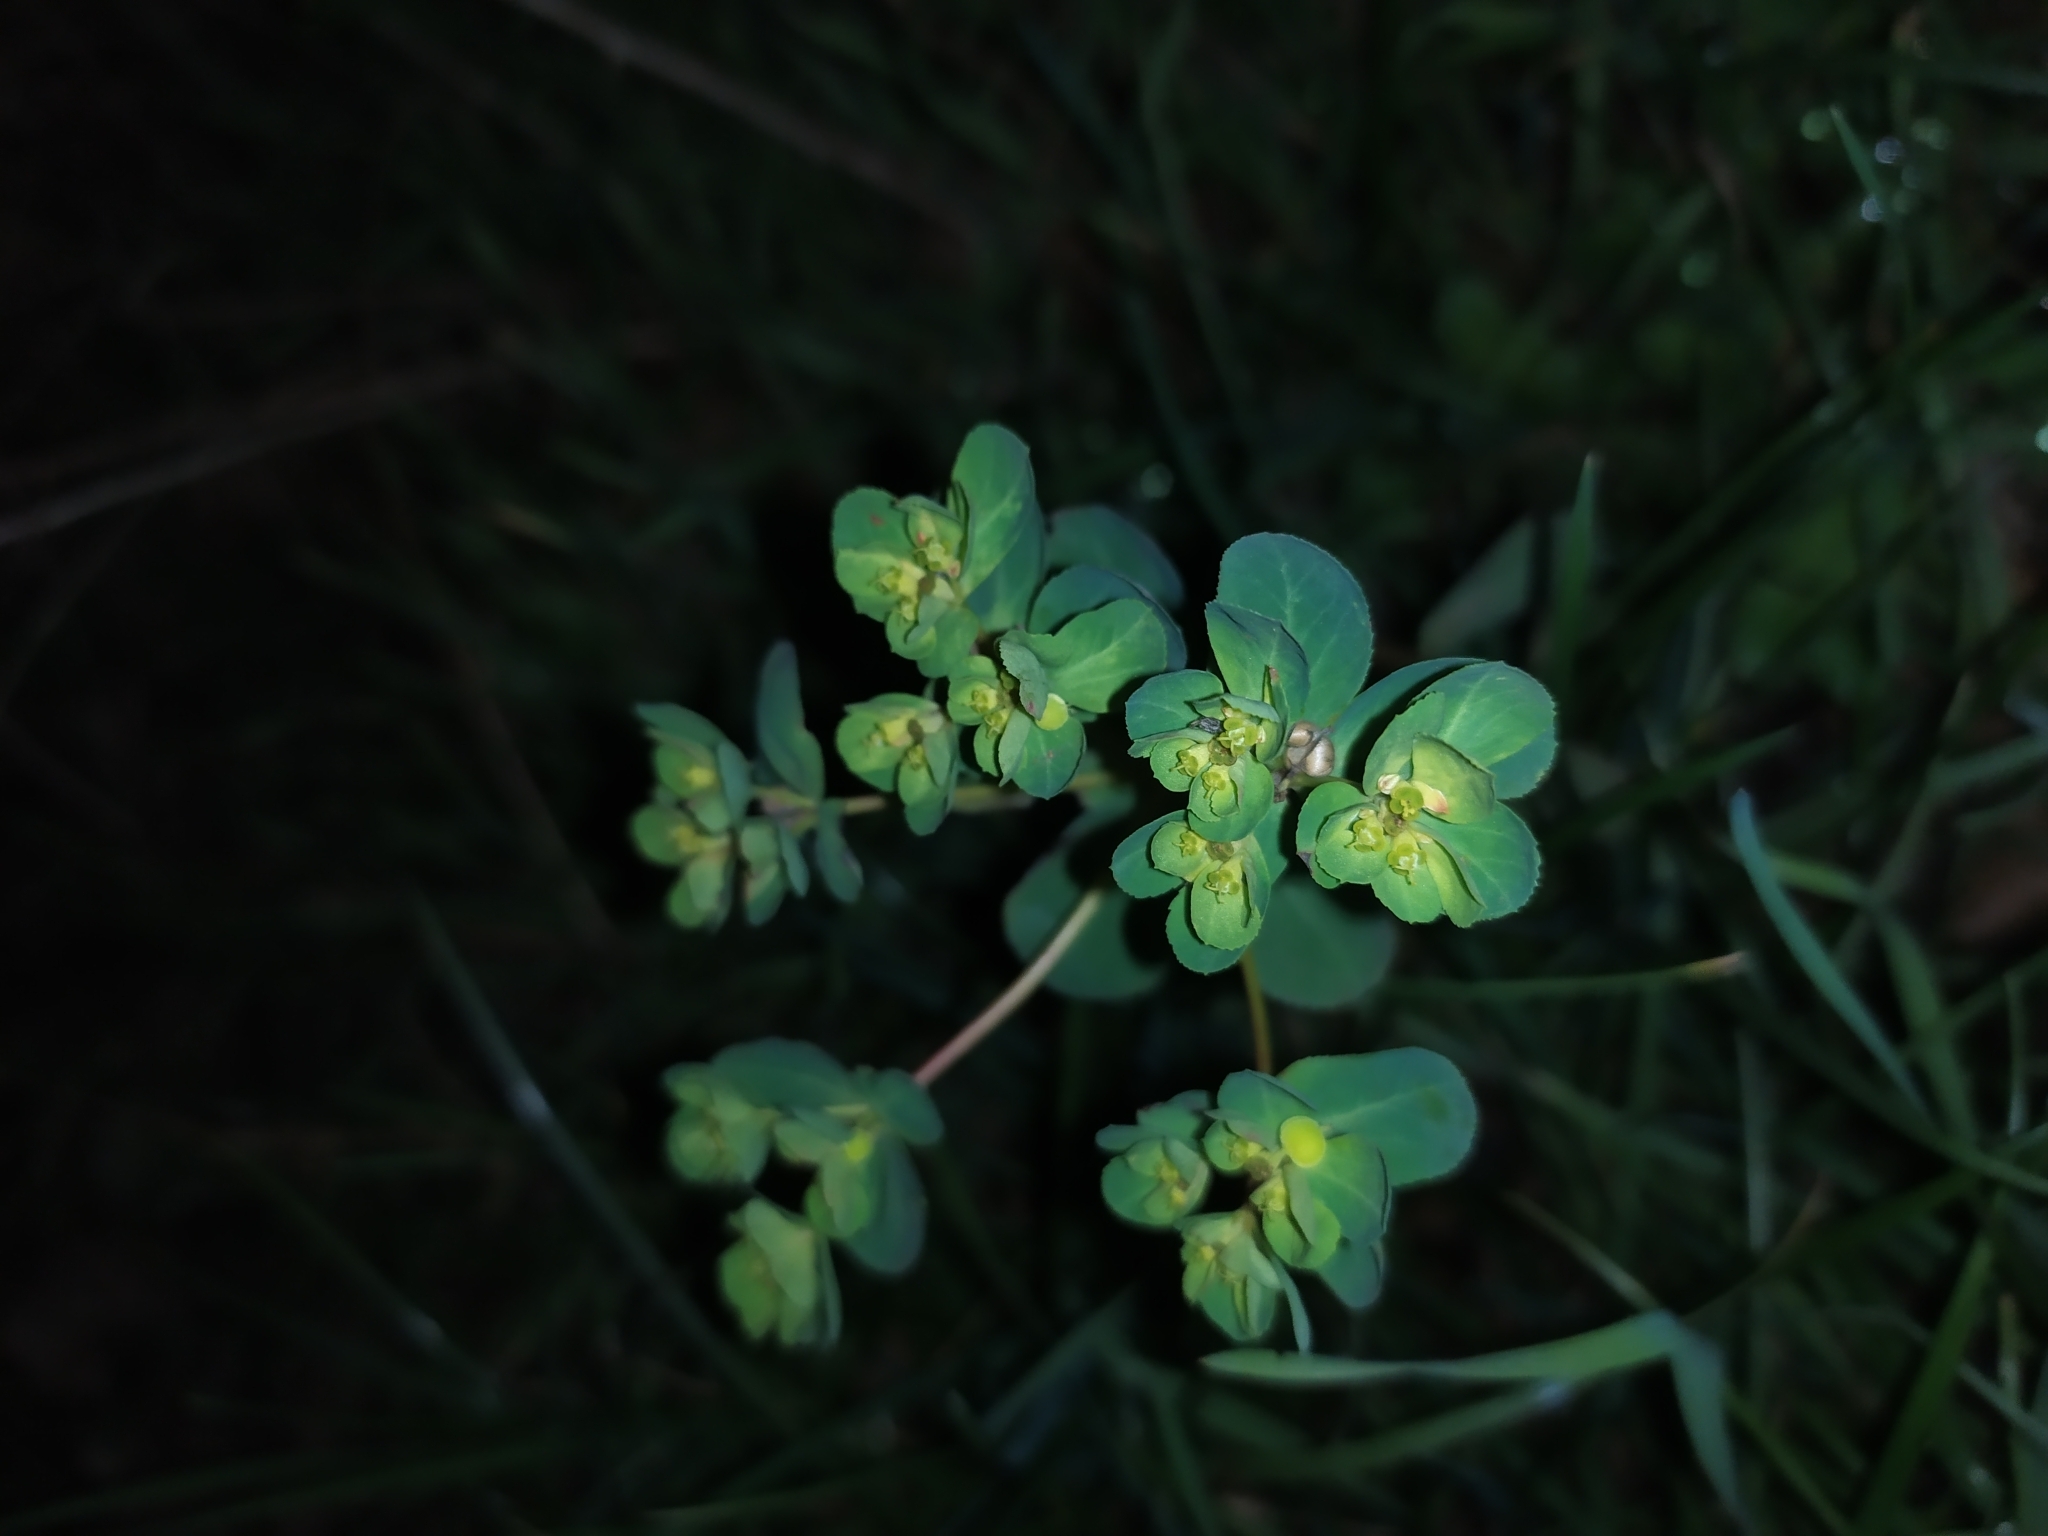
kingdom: Plantae
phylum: Tracheophyta
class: Magnoliopsida
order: Malpighiales
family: Euphorbiaceae
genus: Euphorbia
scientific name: Euphorbia helioscopia
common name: Sun spurge
